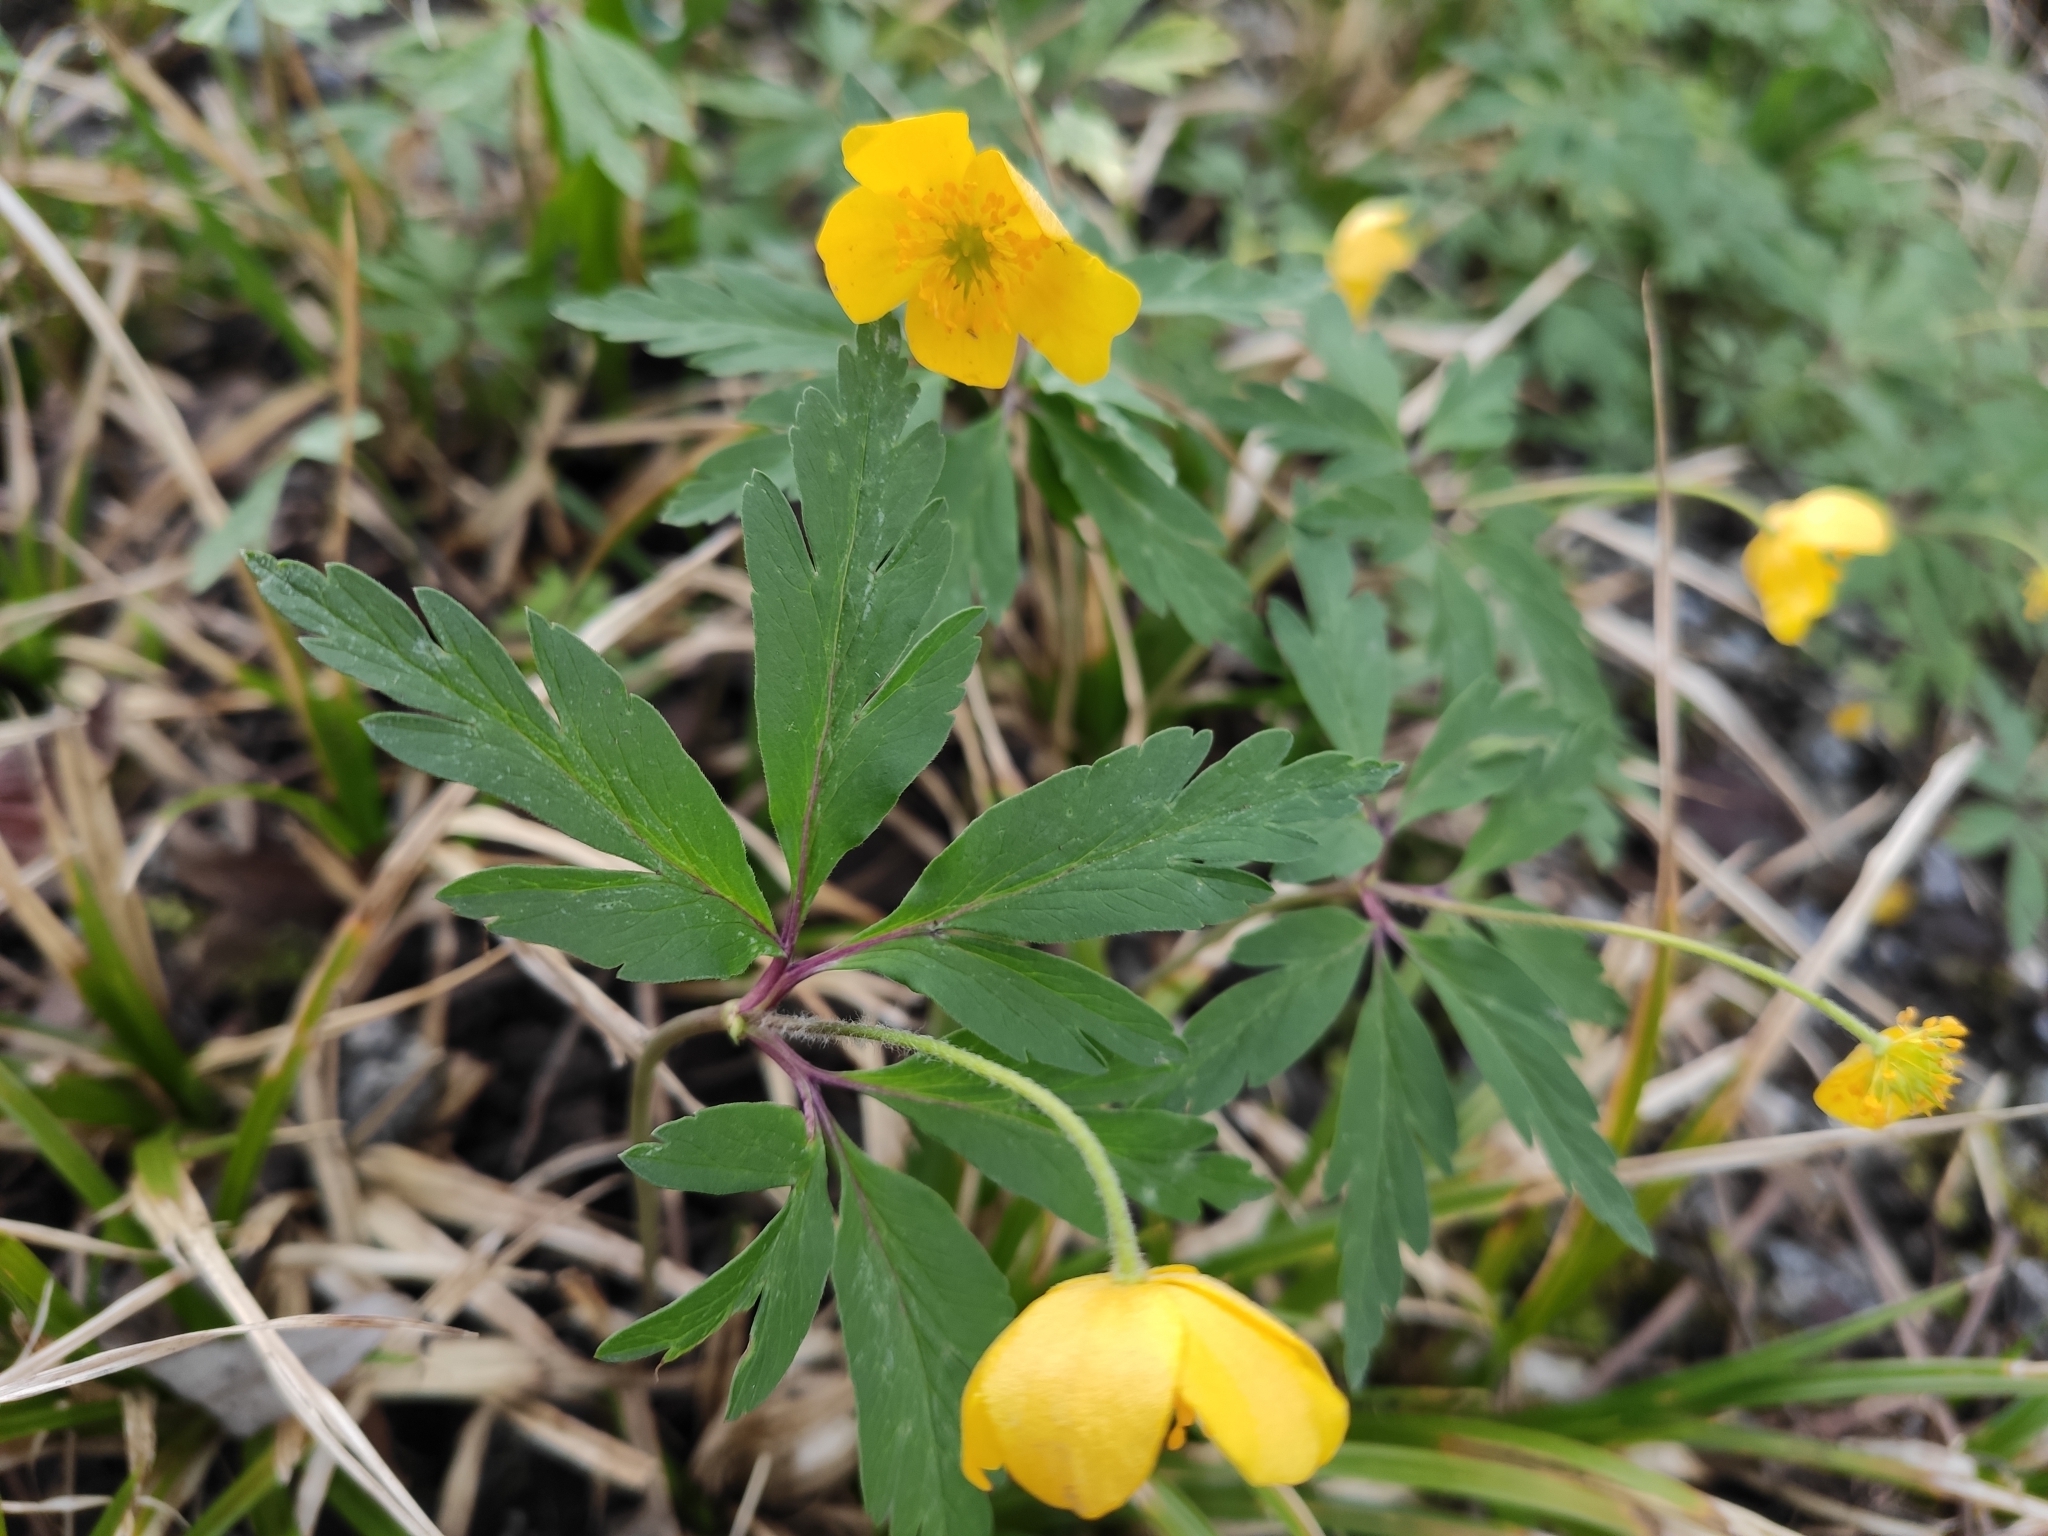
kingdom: Plantae
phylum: Tracheophyta
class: Magnoliopsida
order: Ranunculales
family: Ranunculaceae
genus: Anemone
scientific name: Anemone ranunculoides
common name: Yellow anemone
